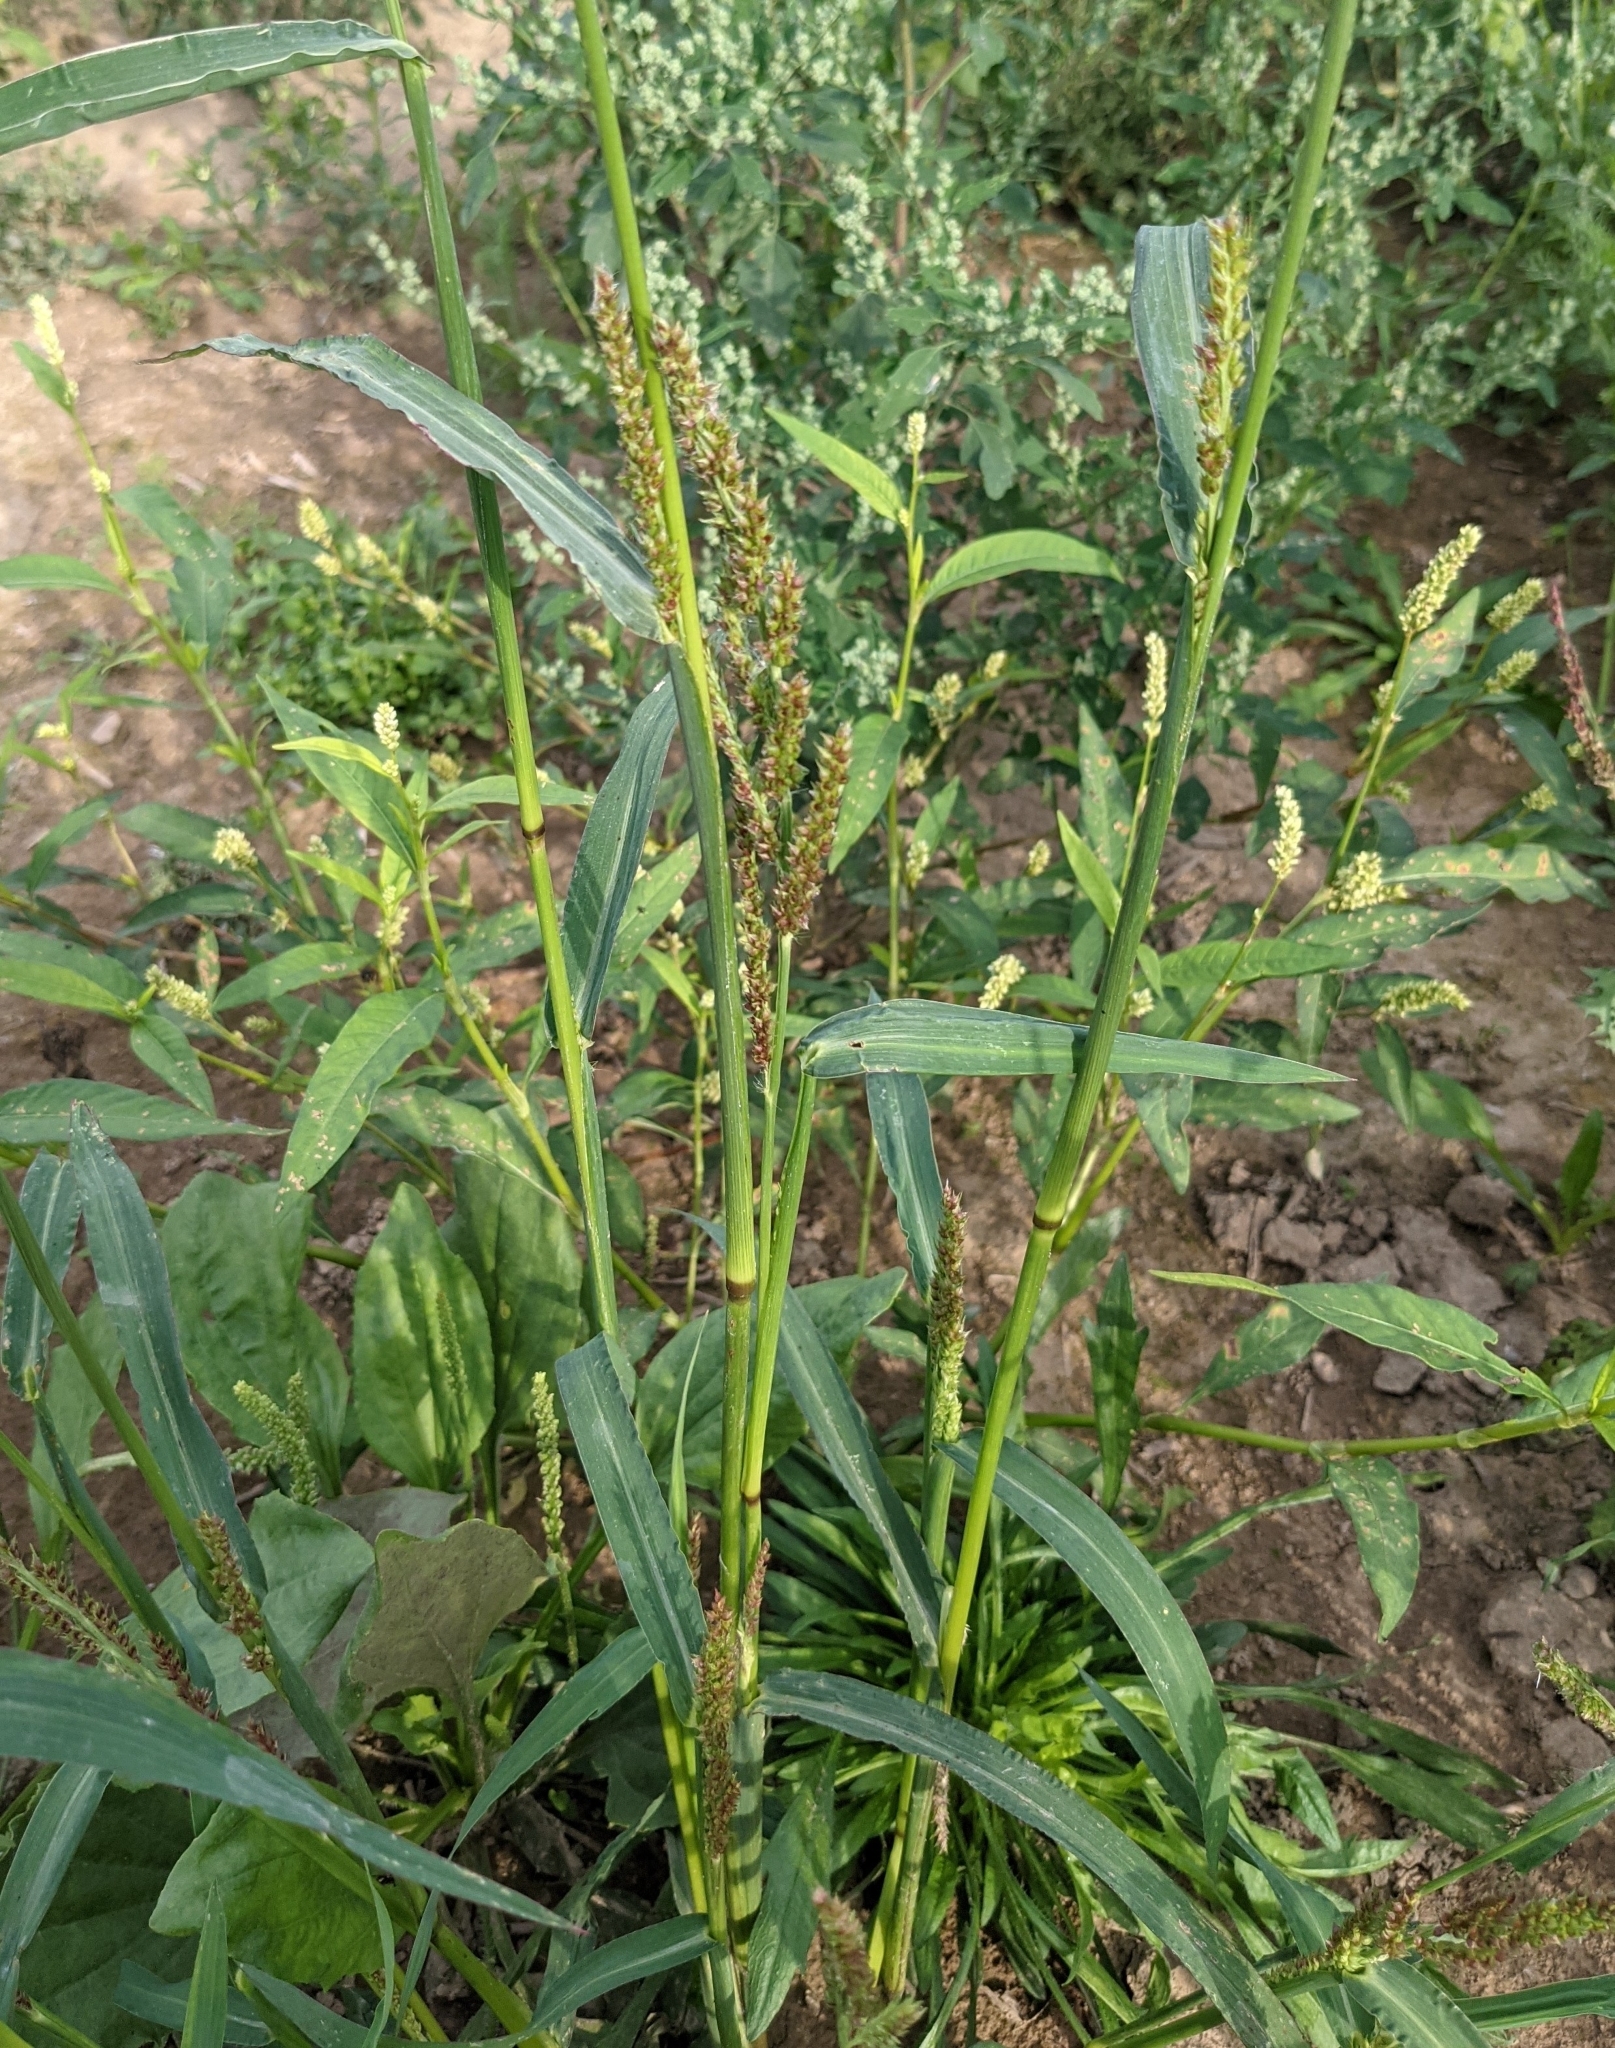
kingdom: Plantae
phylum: Tracheophyta
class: Liliopsida
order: Poales
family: Poaceae
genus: Echinochloa
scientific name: Echinochloa crus-galli
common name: Cockspur
